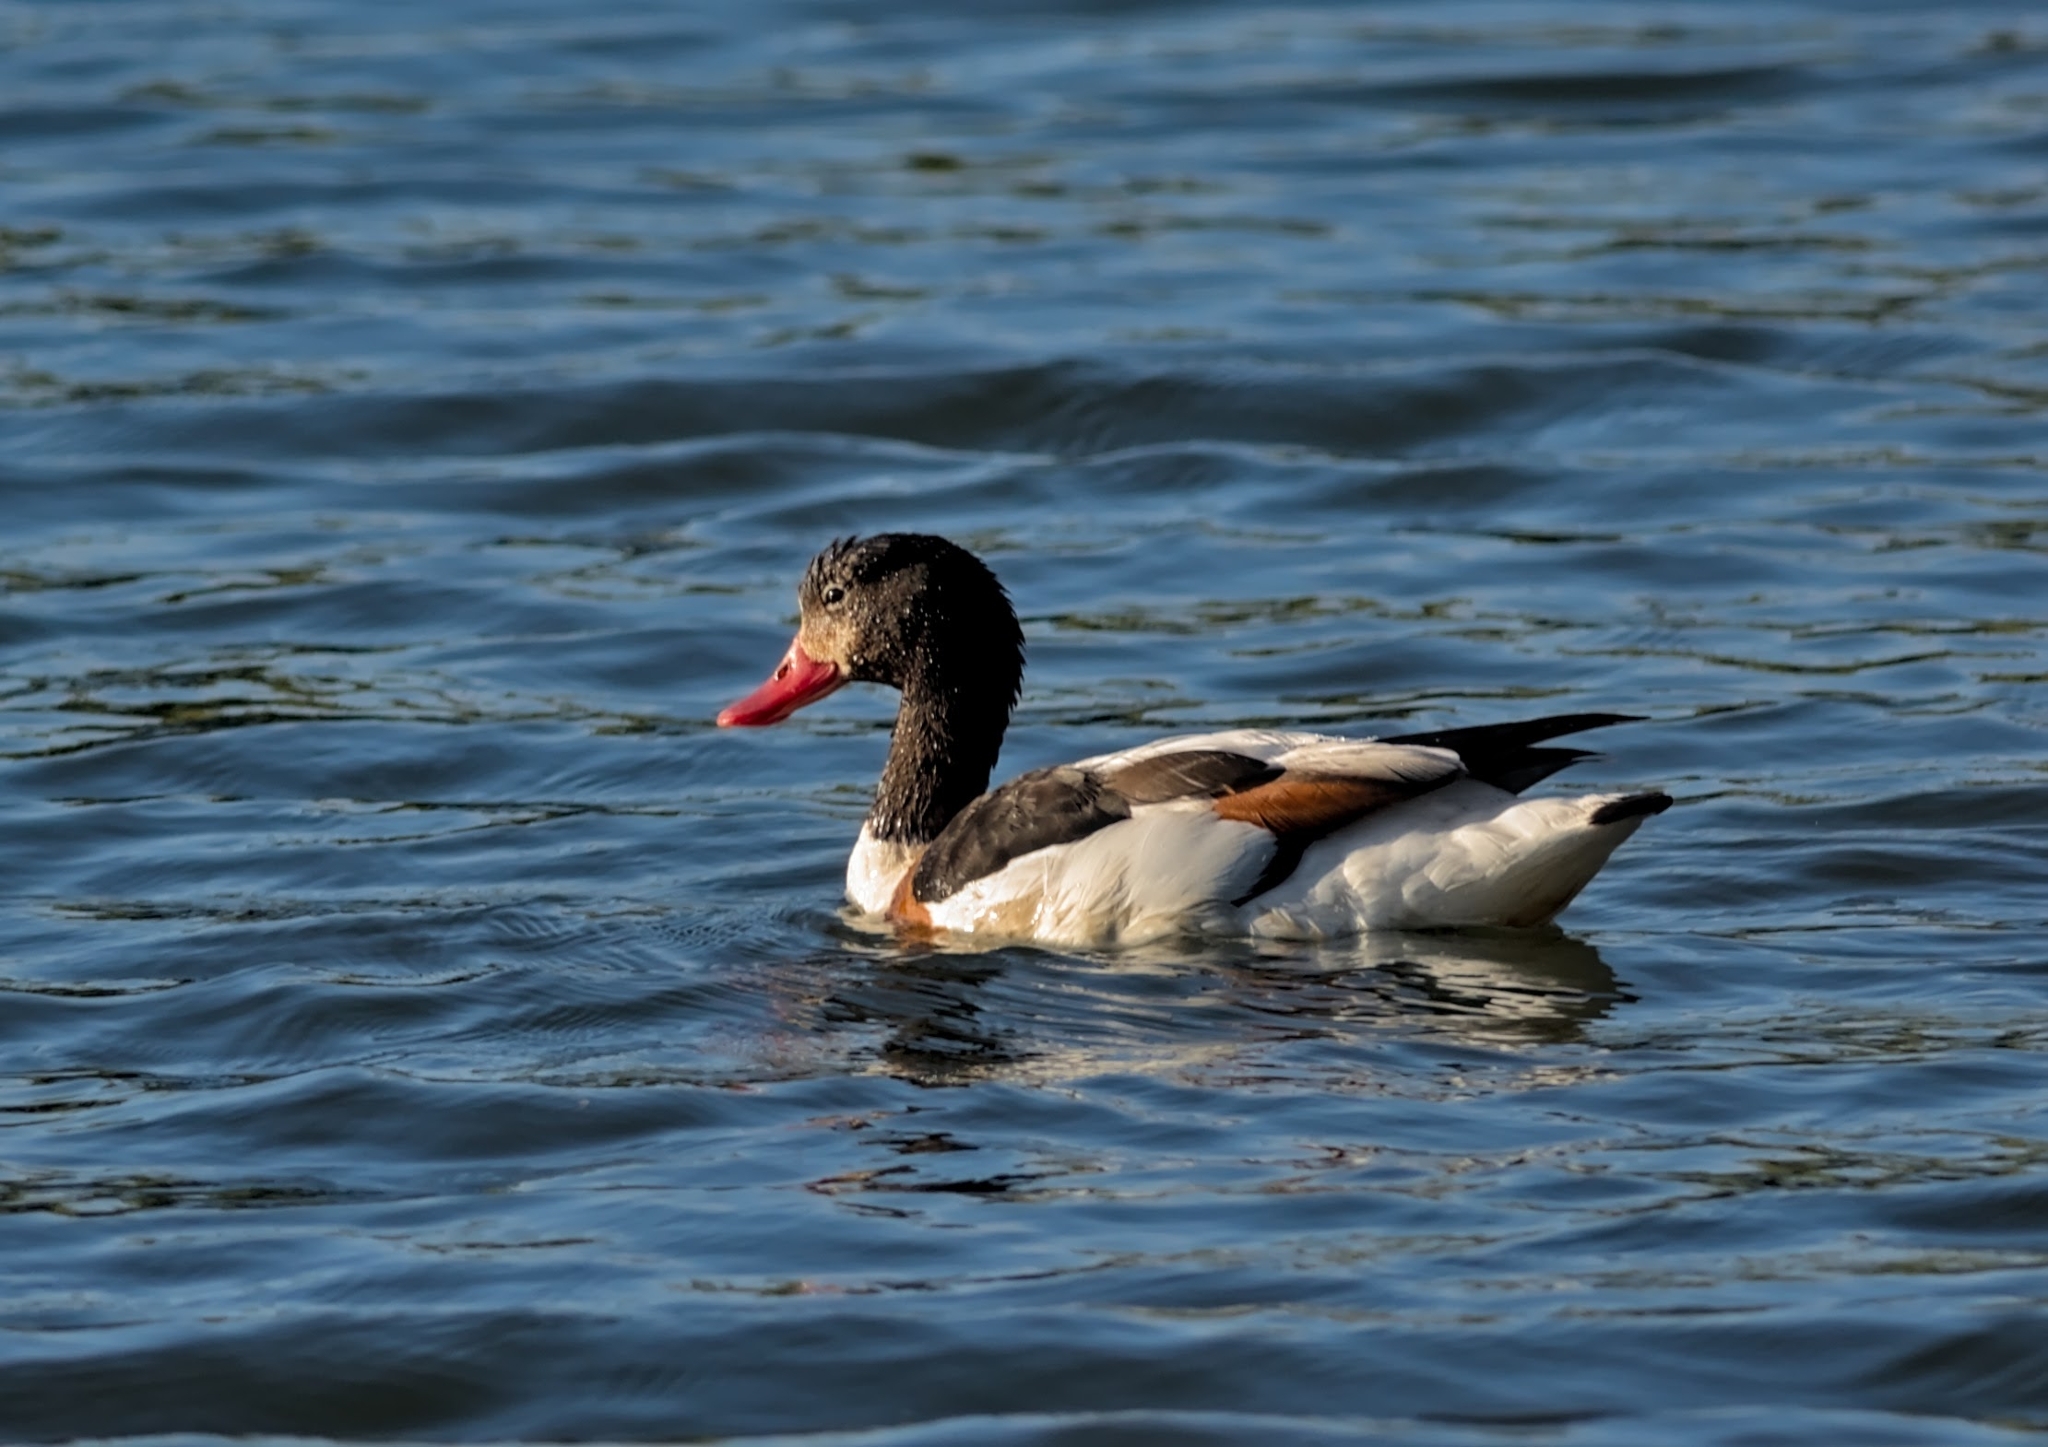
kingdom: Animalia
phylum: Chordata
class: Aves
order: Anseriformes
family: Anatidae
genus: Tadorna
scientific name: Tadorna tadorna
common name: Common shelduck
